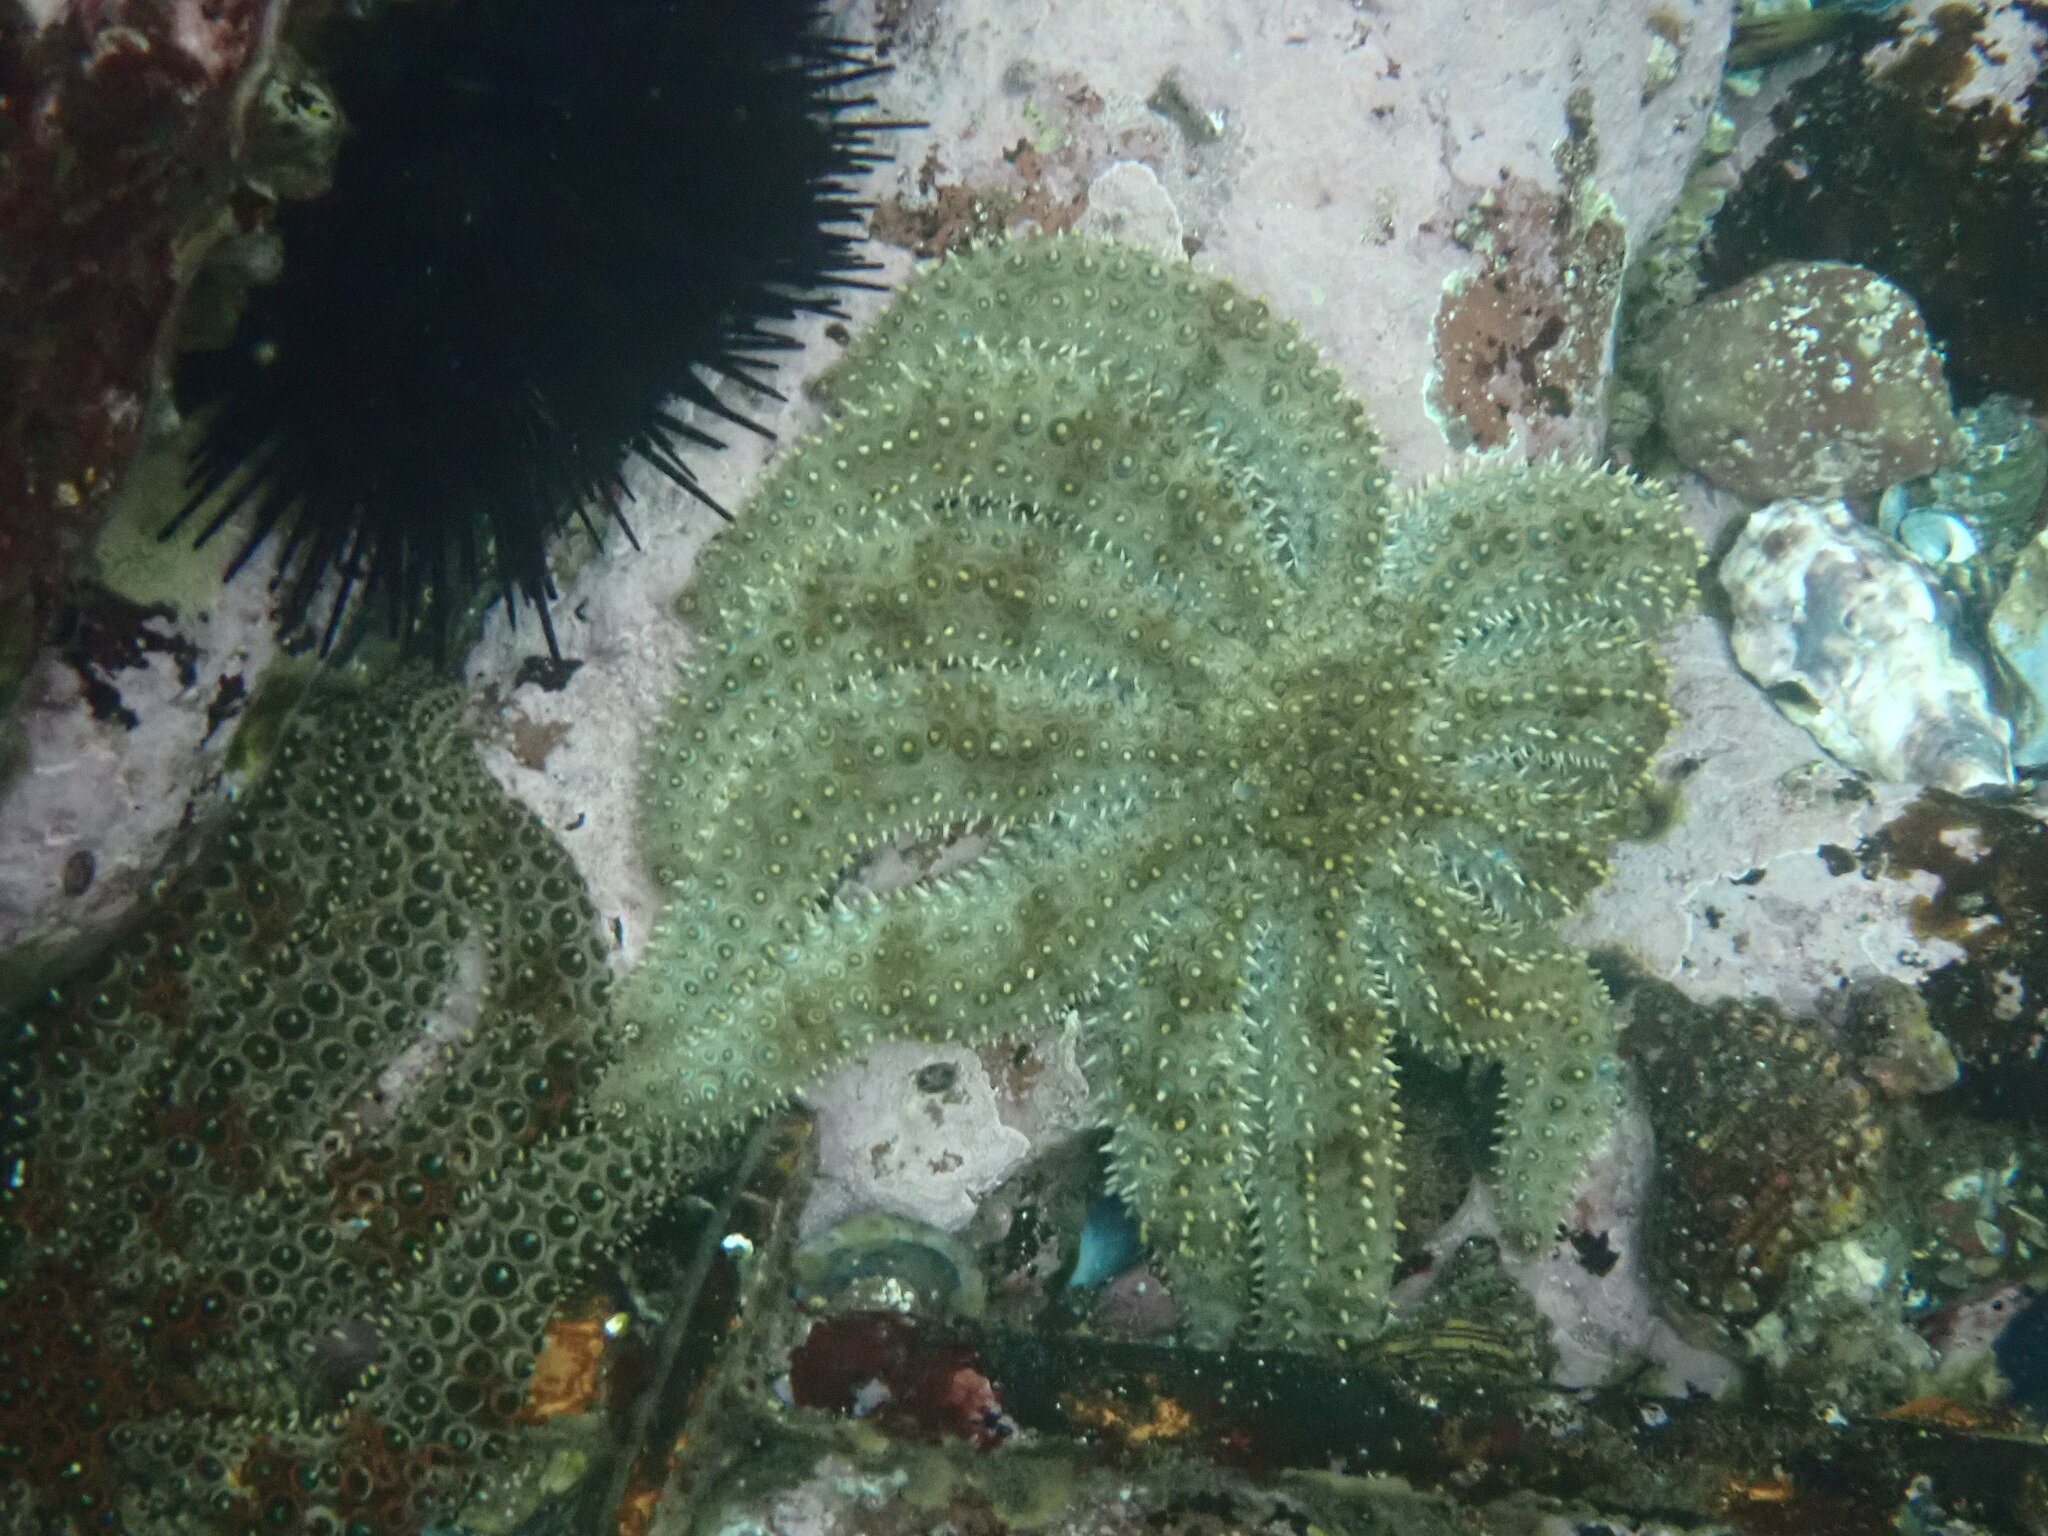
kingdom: Animalia
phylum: Echinodermata
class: Asteroidea
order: Forcipulatida
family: Asteriidae
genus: Coscinasterias
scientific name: Coscinasterias muricata
